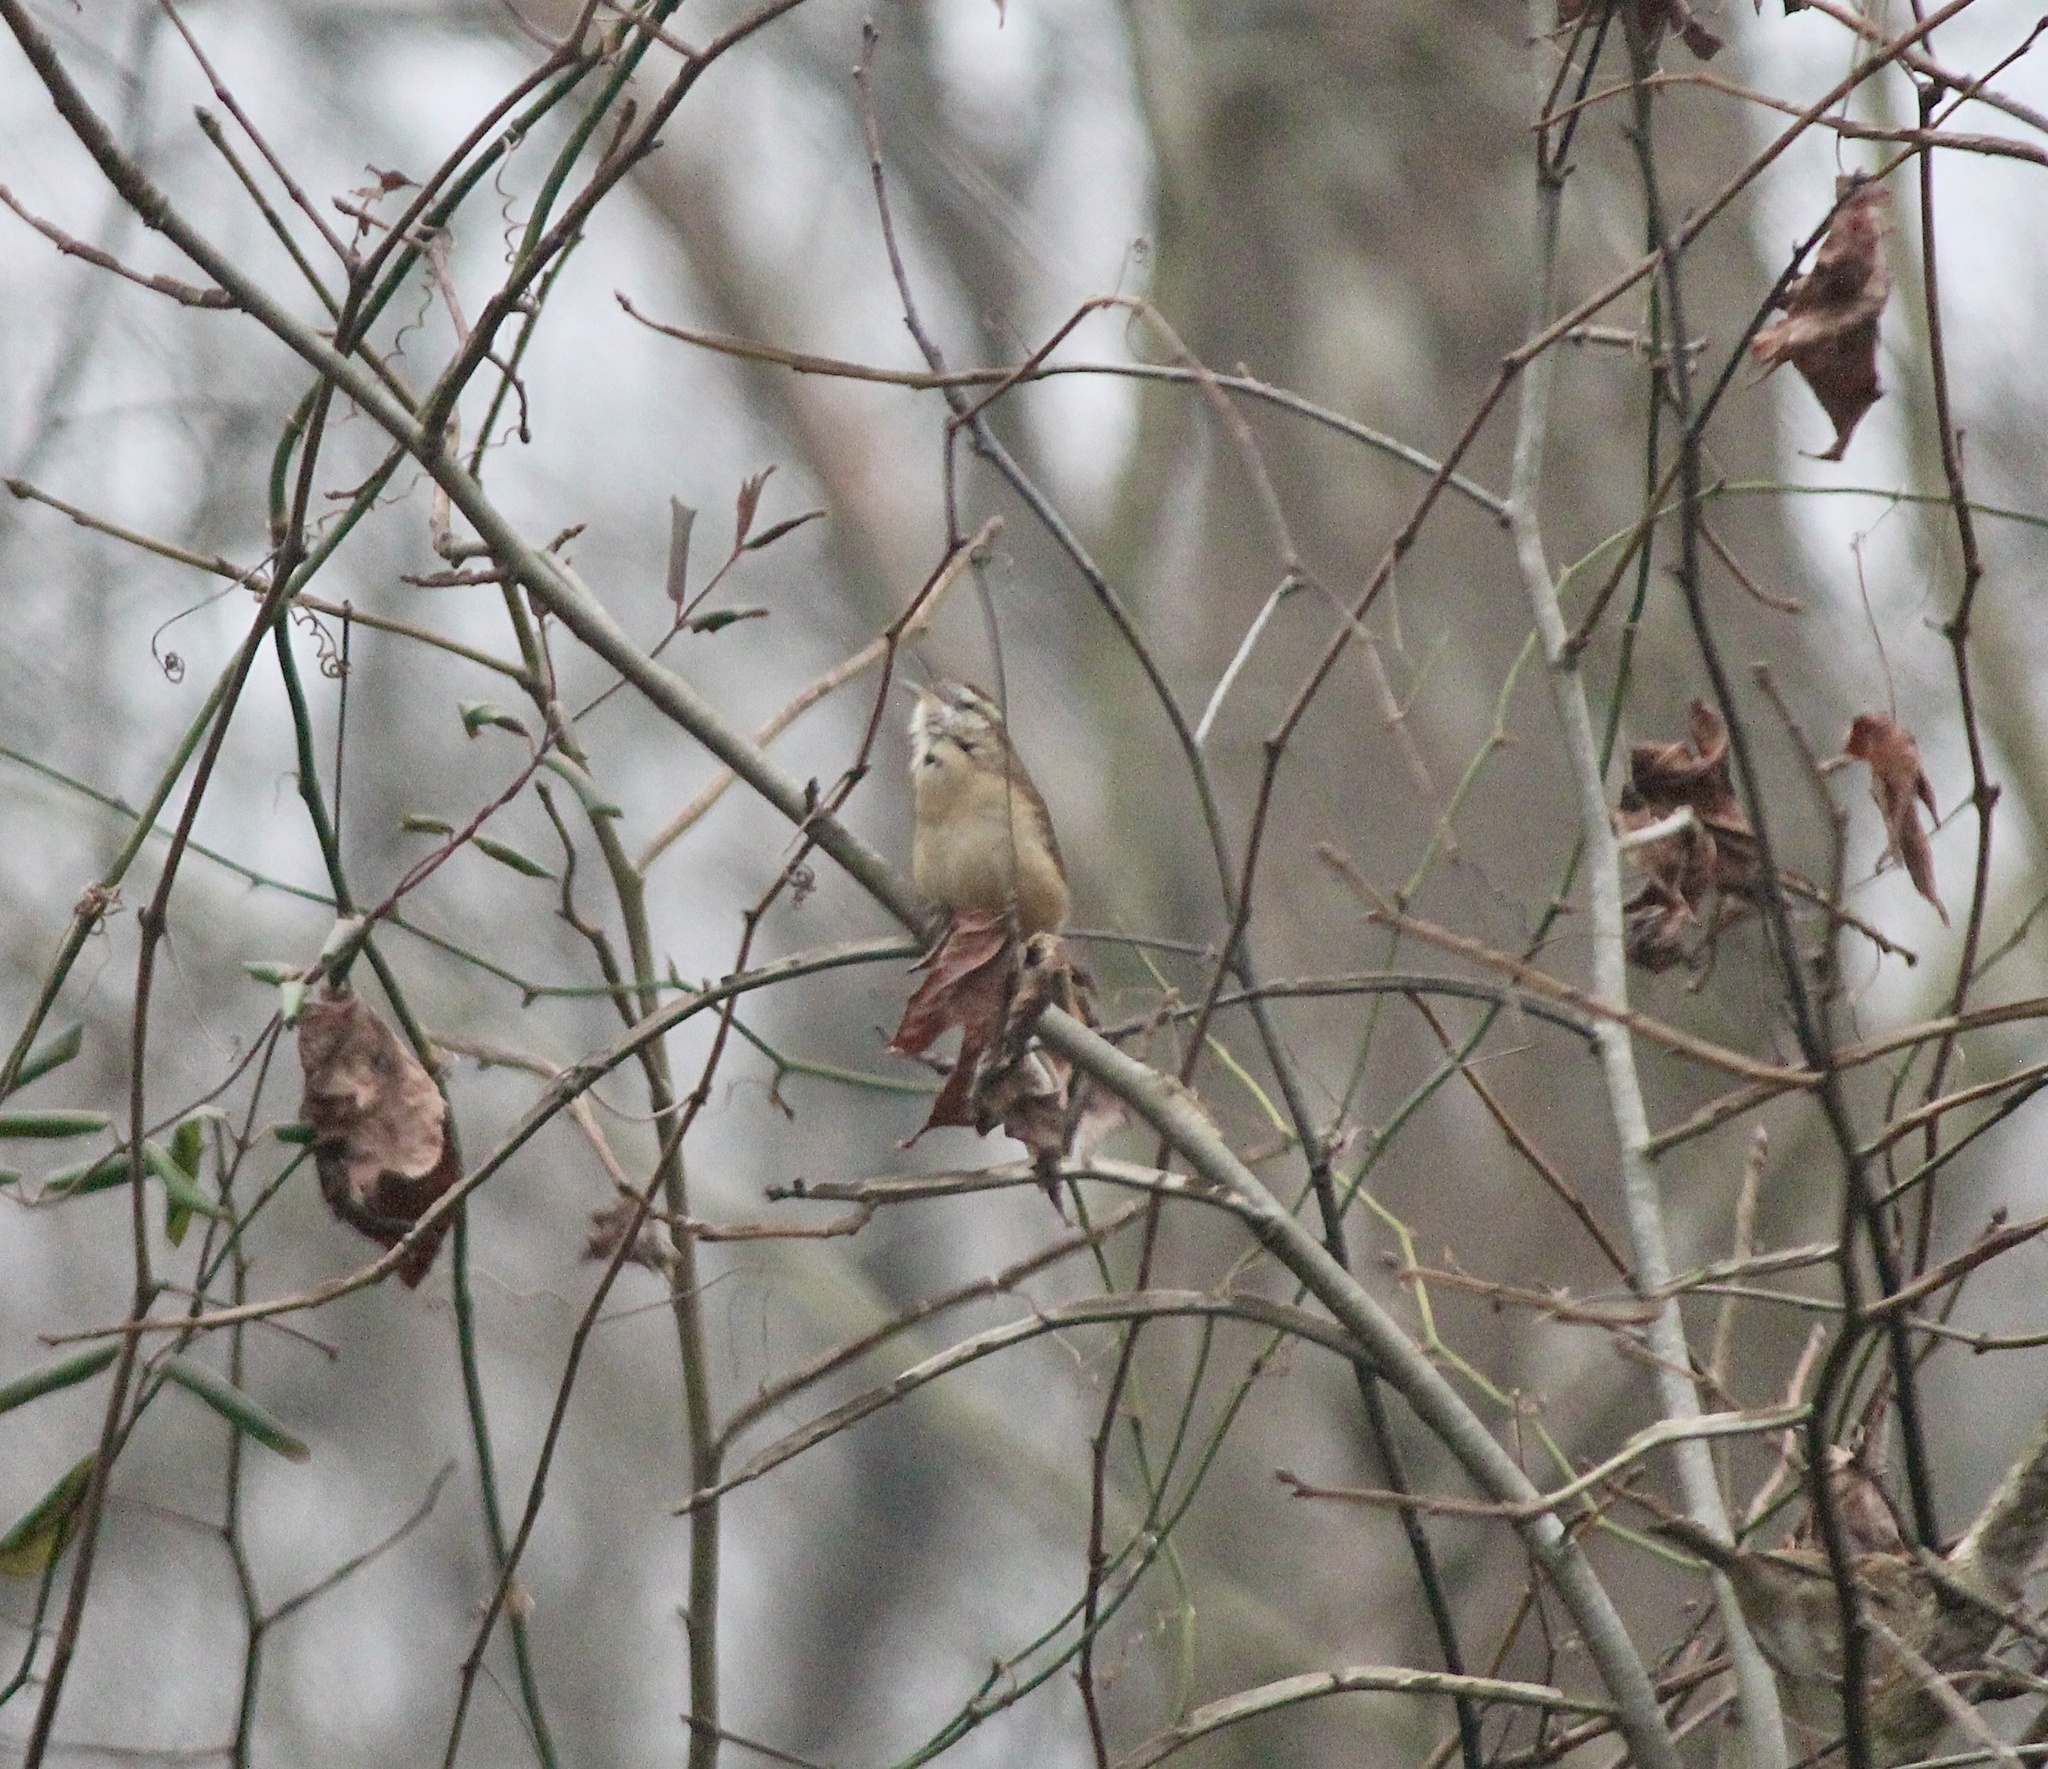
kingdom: Animalia
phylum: Chordata
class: Aves
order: Passeriformes
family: Troglodytidae
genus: Thryothorus
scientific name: Thryothorus ludovicianus
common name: Carolina wren
